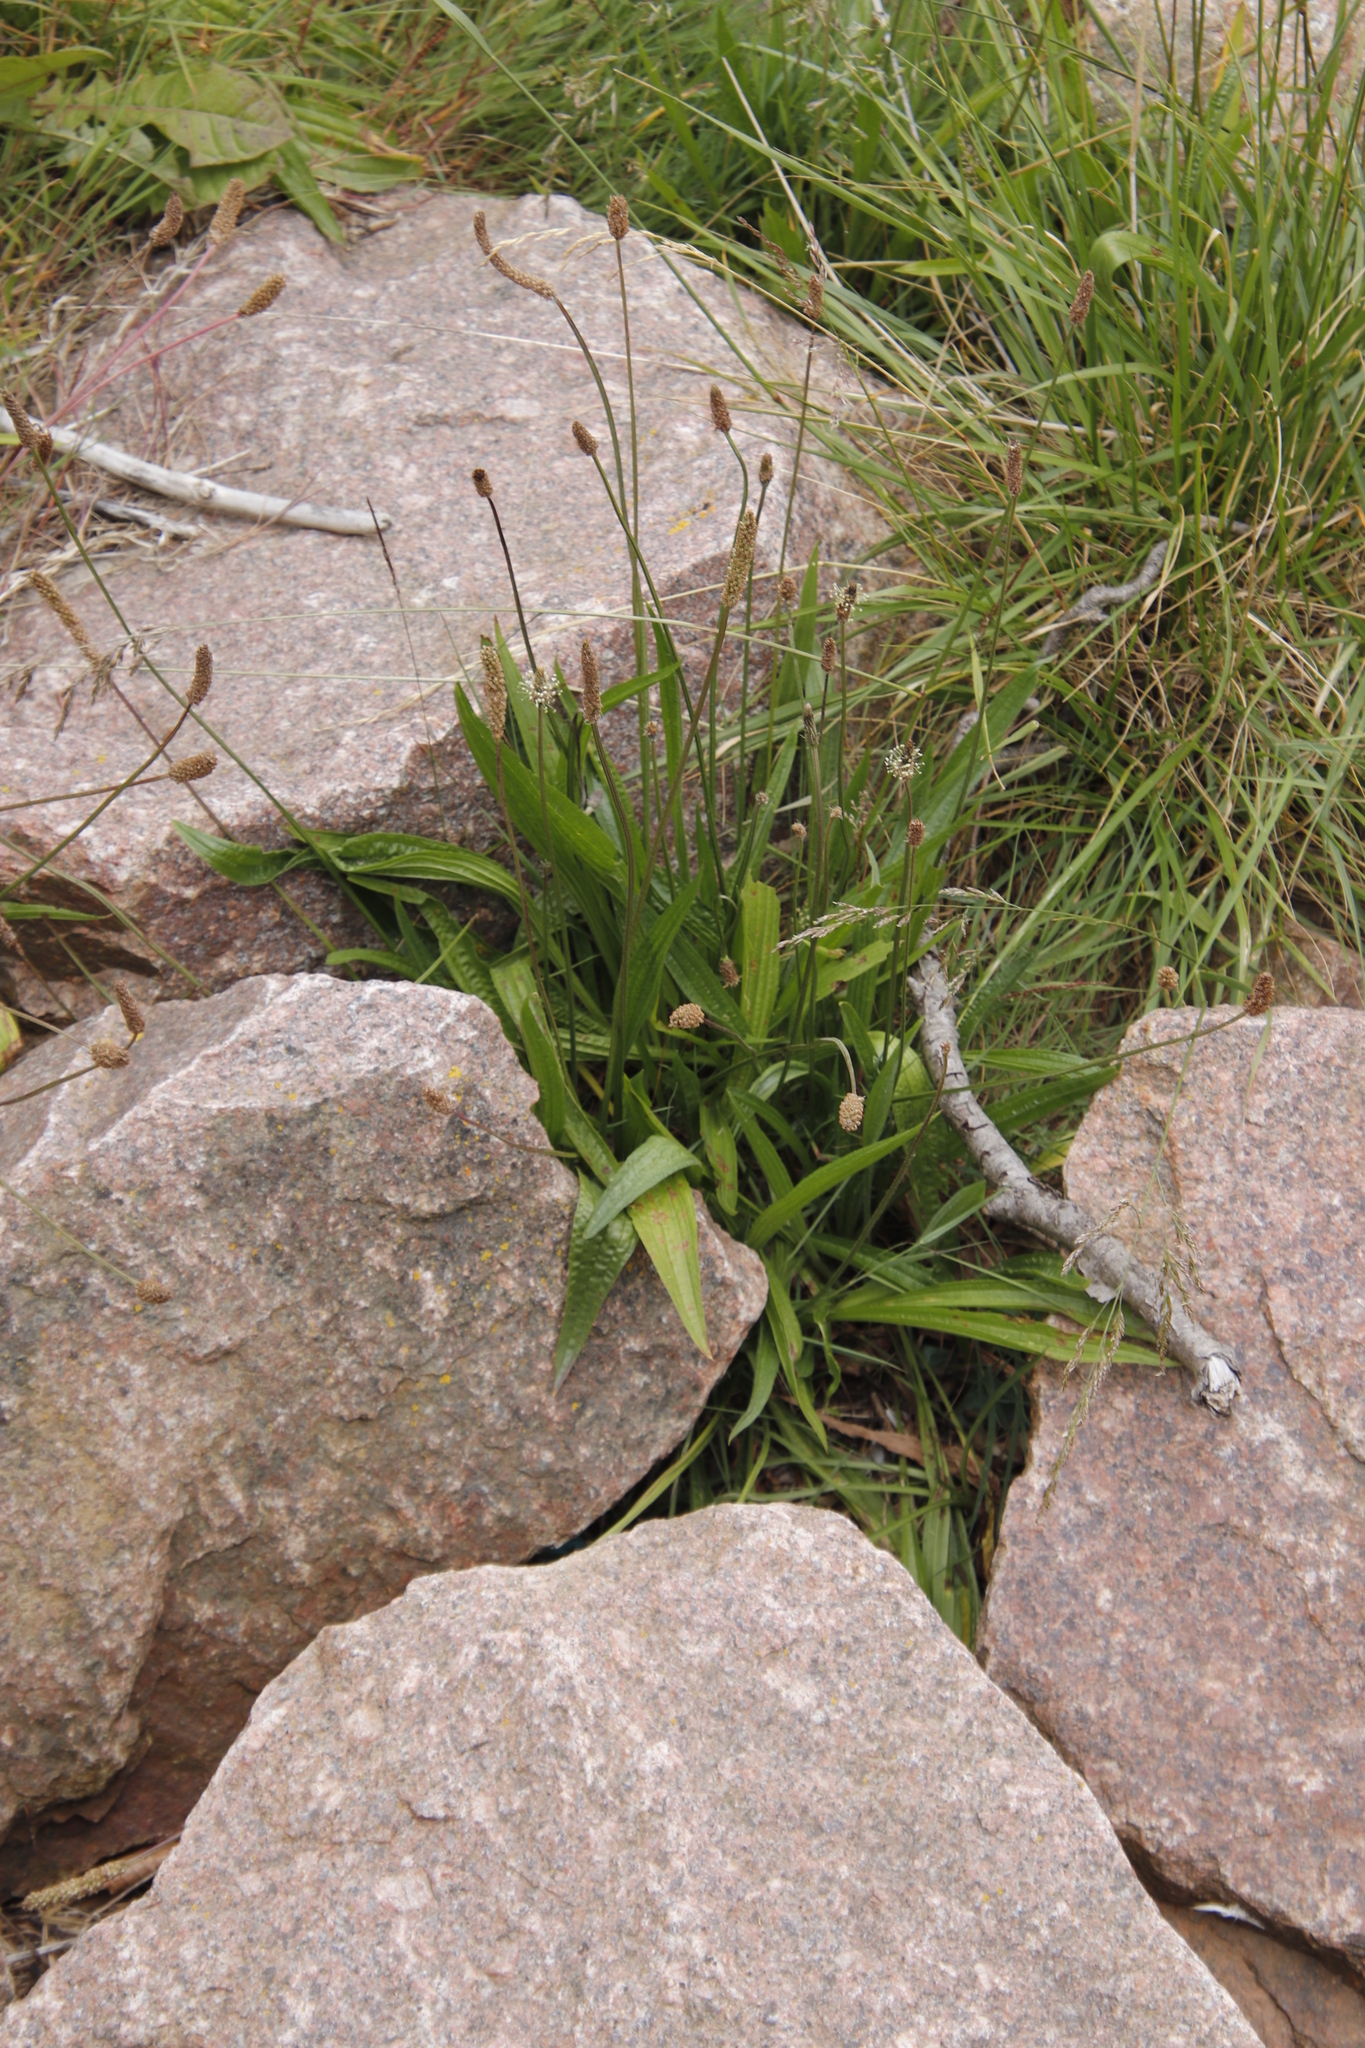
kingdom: Plantae
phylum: Tracheophyta
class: Magnoliopsida
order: Lamiales
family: Plantaginaceae
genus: Plantago
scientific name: Plantago lanceolata
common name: Ribwort plantain
